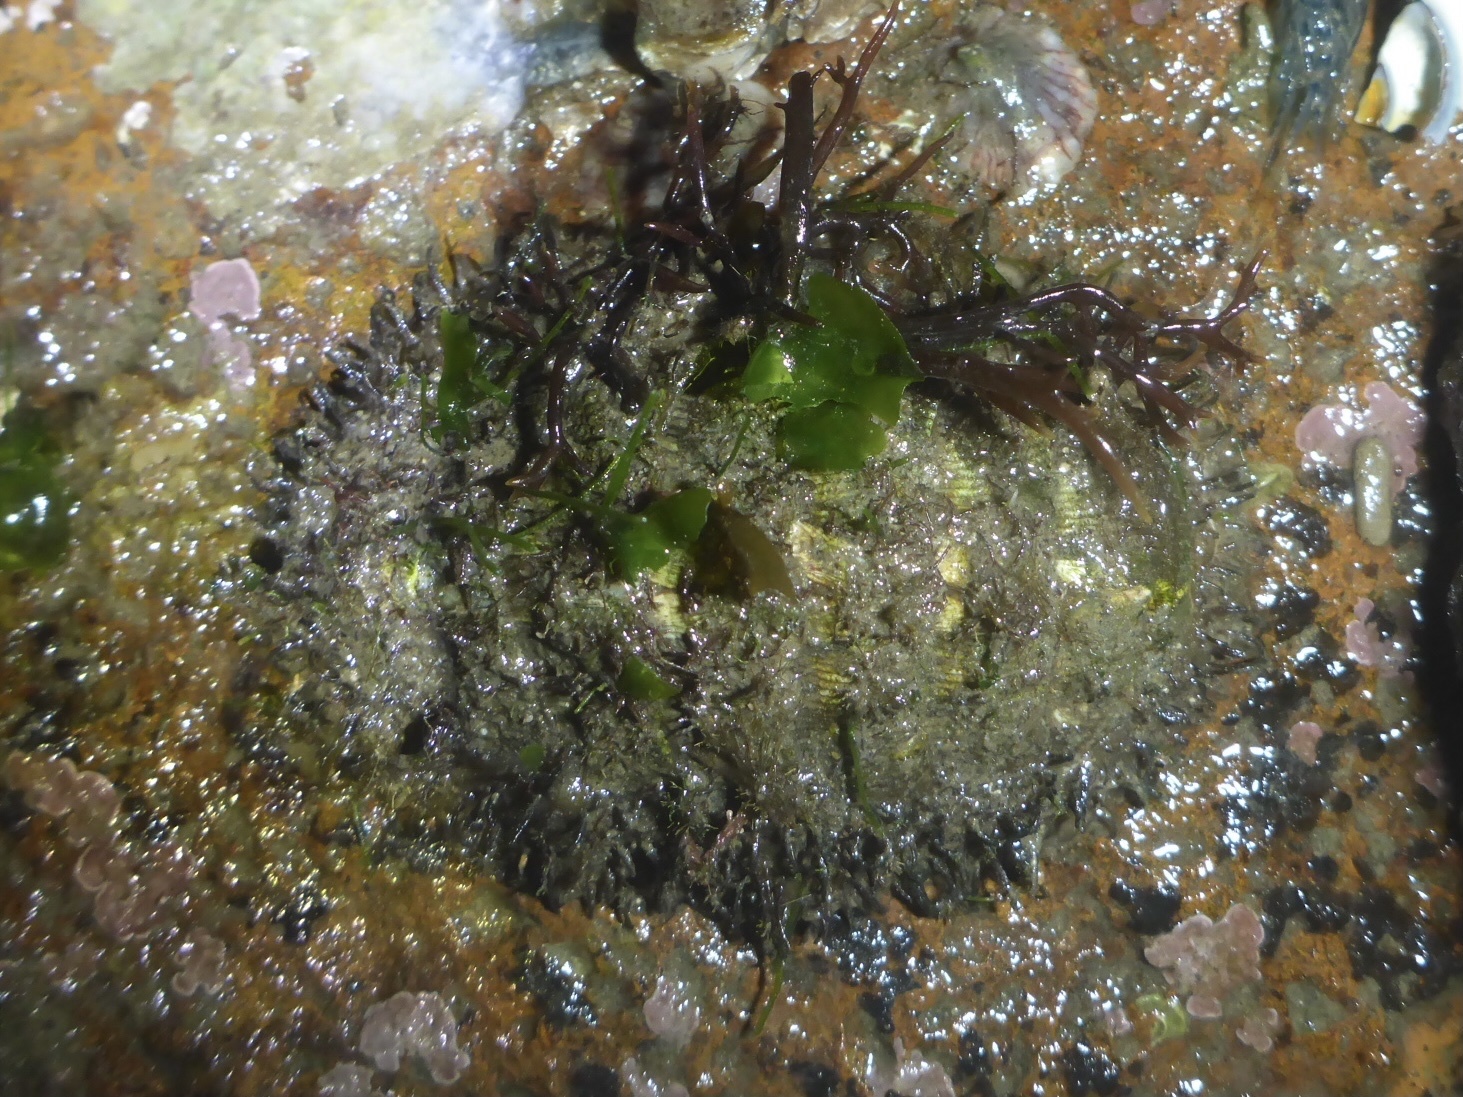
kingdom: Animalia
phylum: Mollusca
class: Polyplacophora
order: Chitonida
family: Mopaliidae
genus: Mopalia
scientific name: Mopalia muscosa
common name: Mossy chiton
